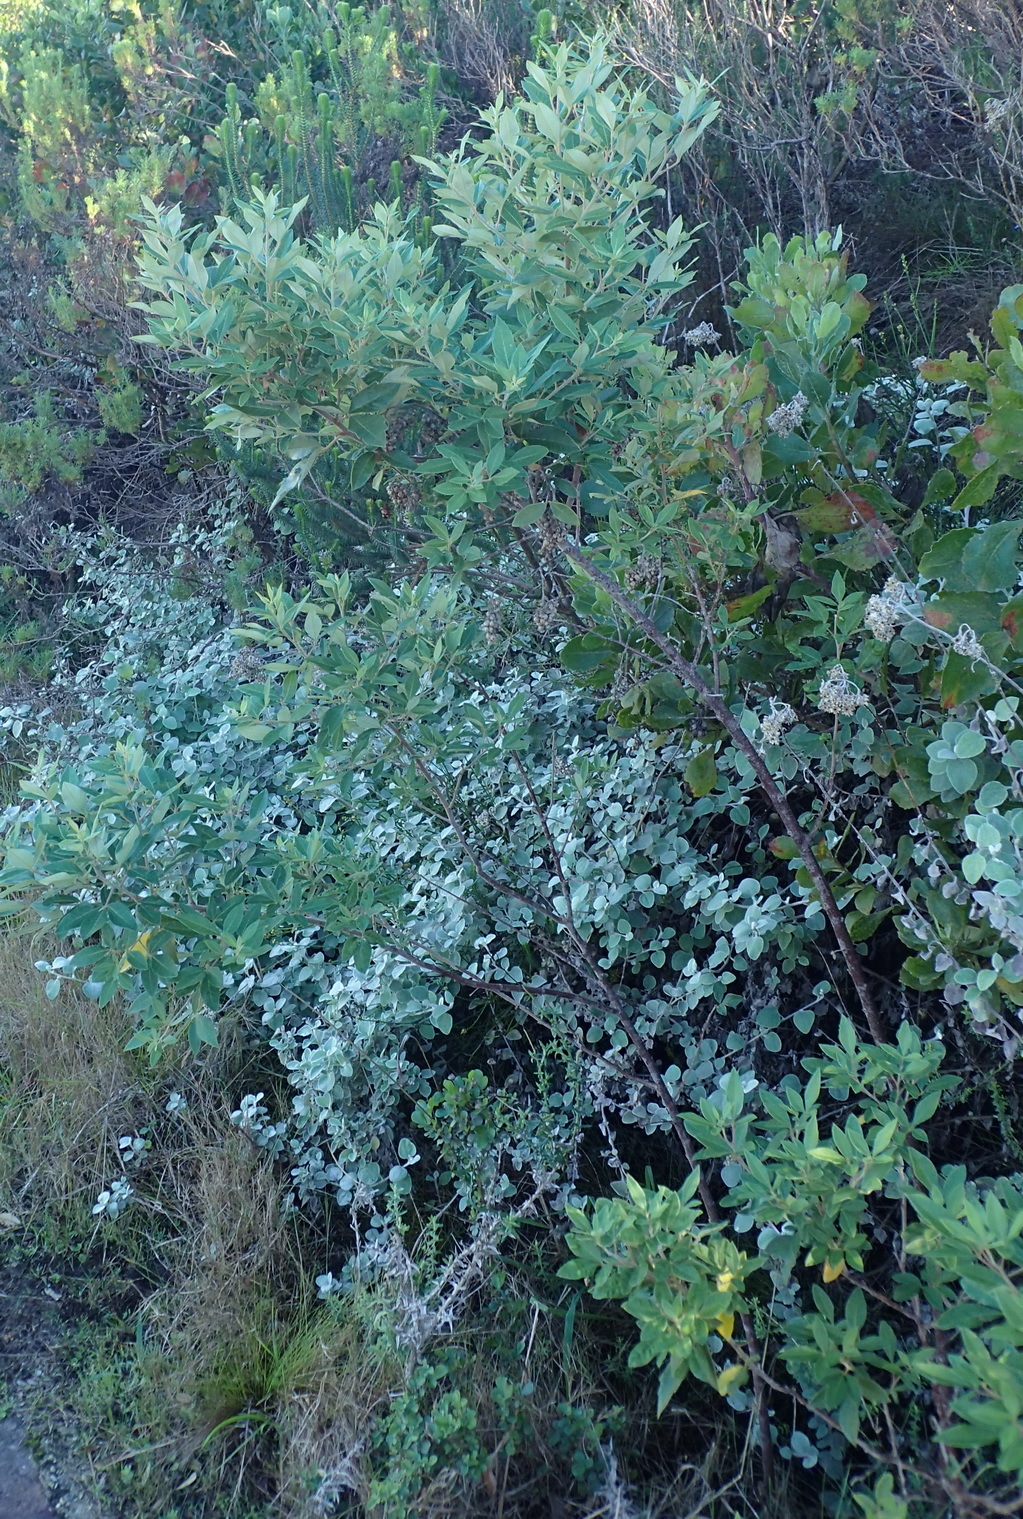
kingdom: Plantae
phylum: Tracheophyta
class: Magnoliopsida
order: Sapindales
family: Anacardiaceae
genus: Searsia
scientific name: Searsia tomentosa
